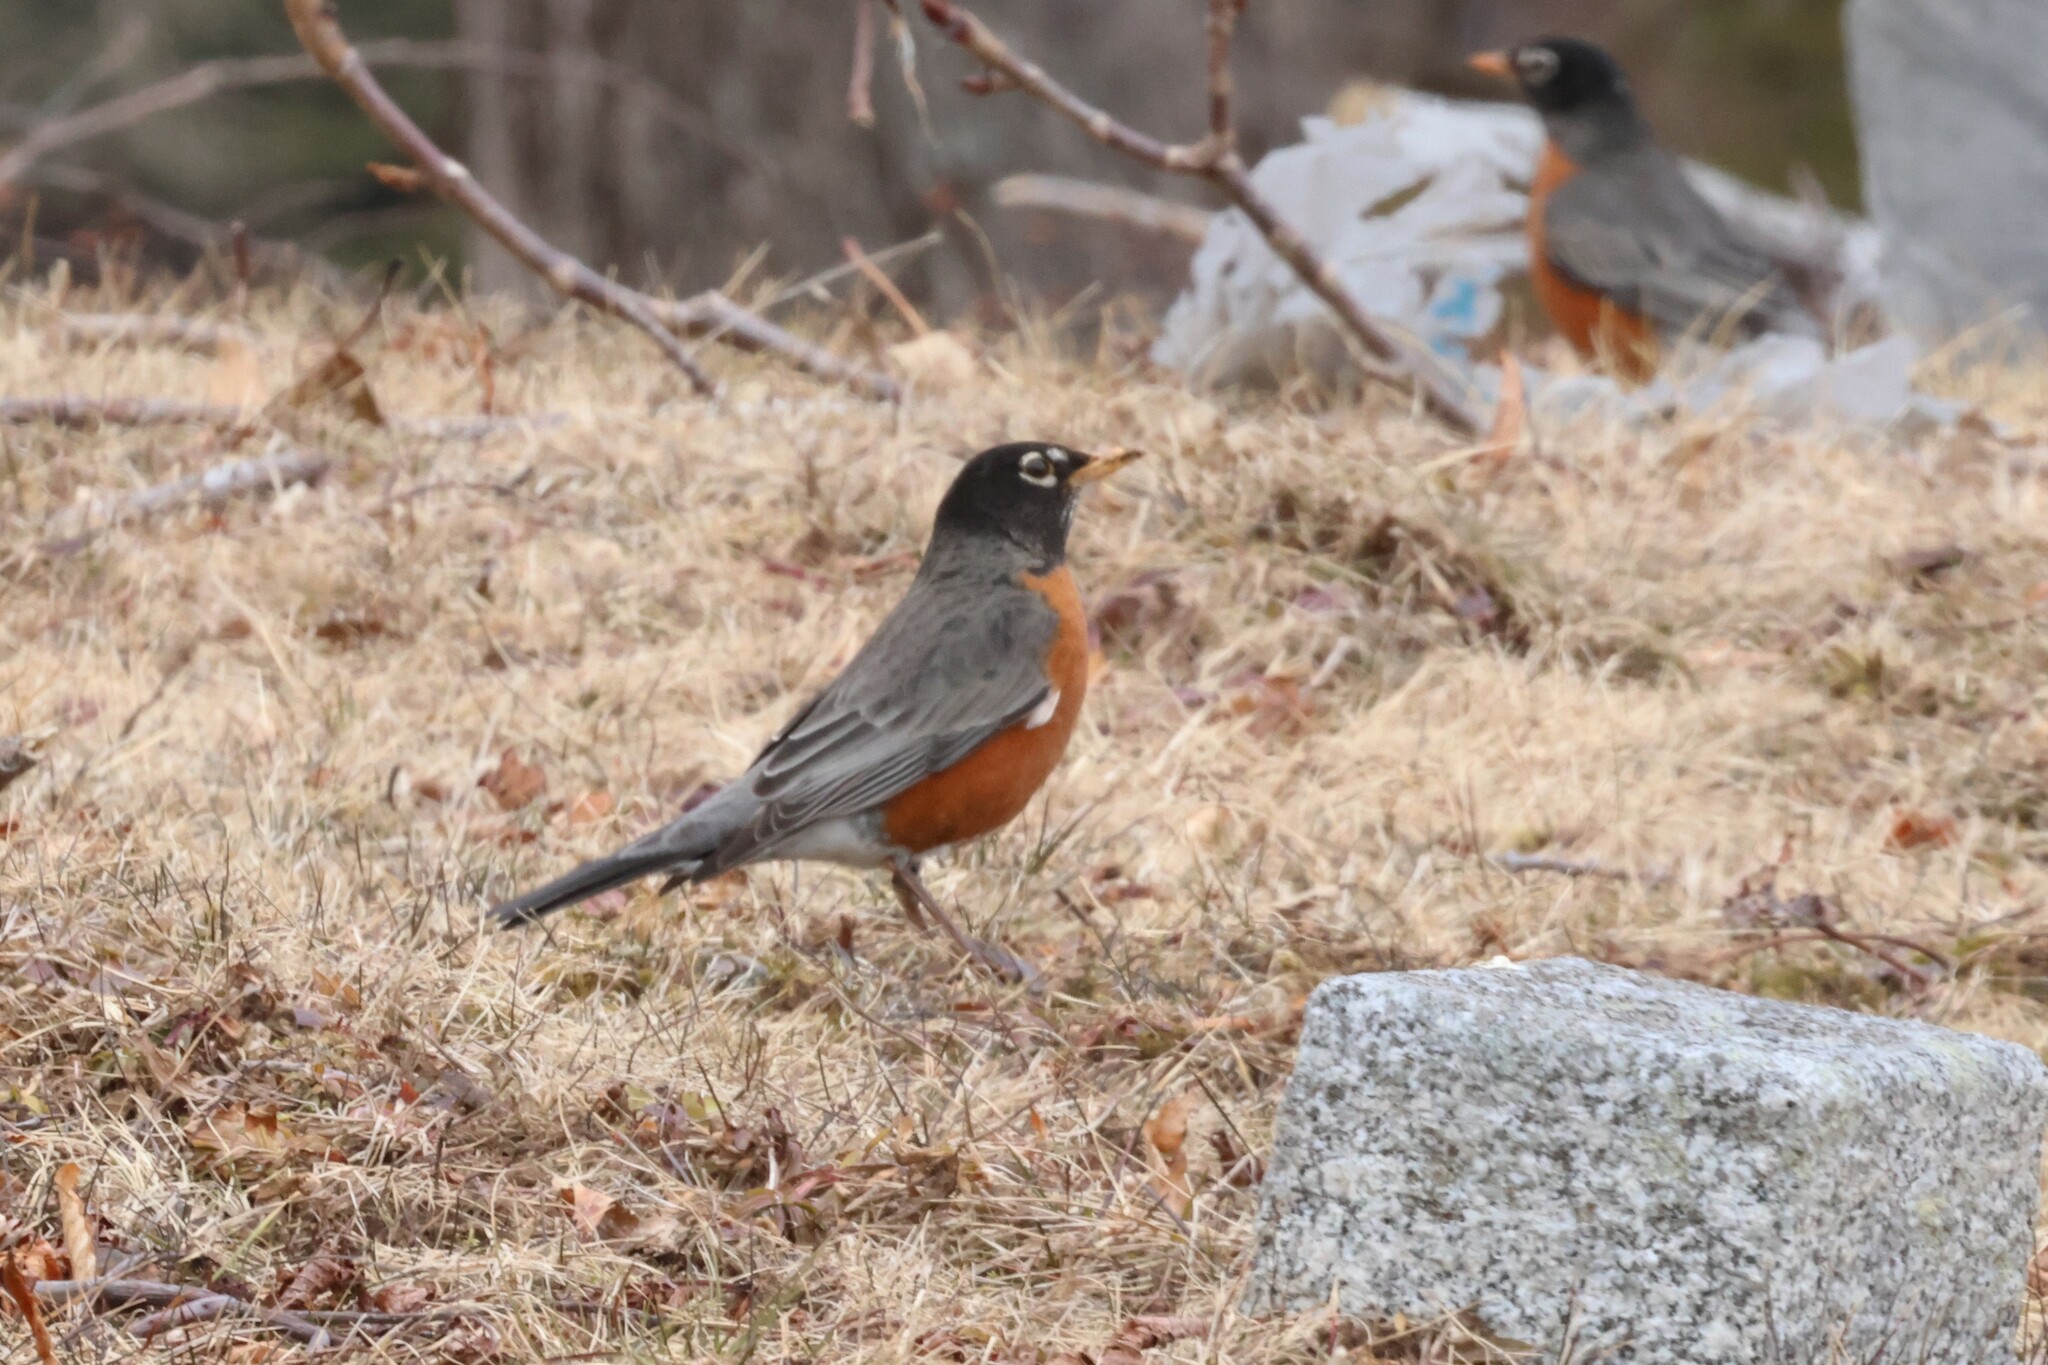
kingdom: Animalia
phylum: Chordata
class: Aves
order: Passeriformes
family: Turdidae
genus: Turdus
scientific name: Turdus migratorius
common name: American robin
